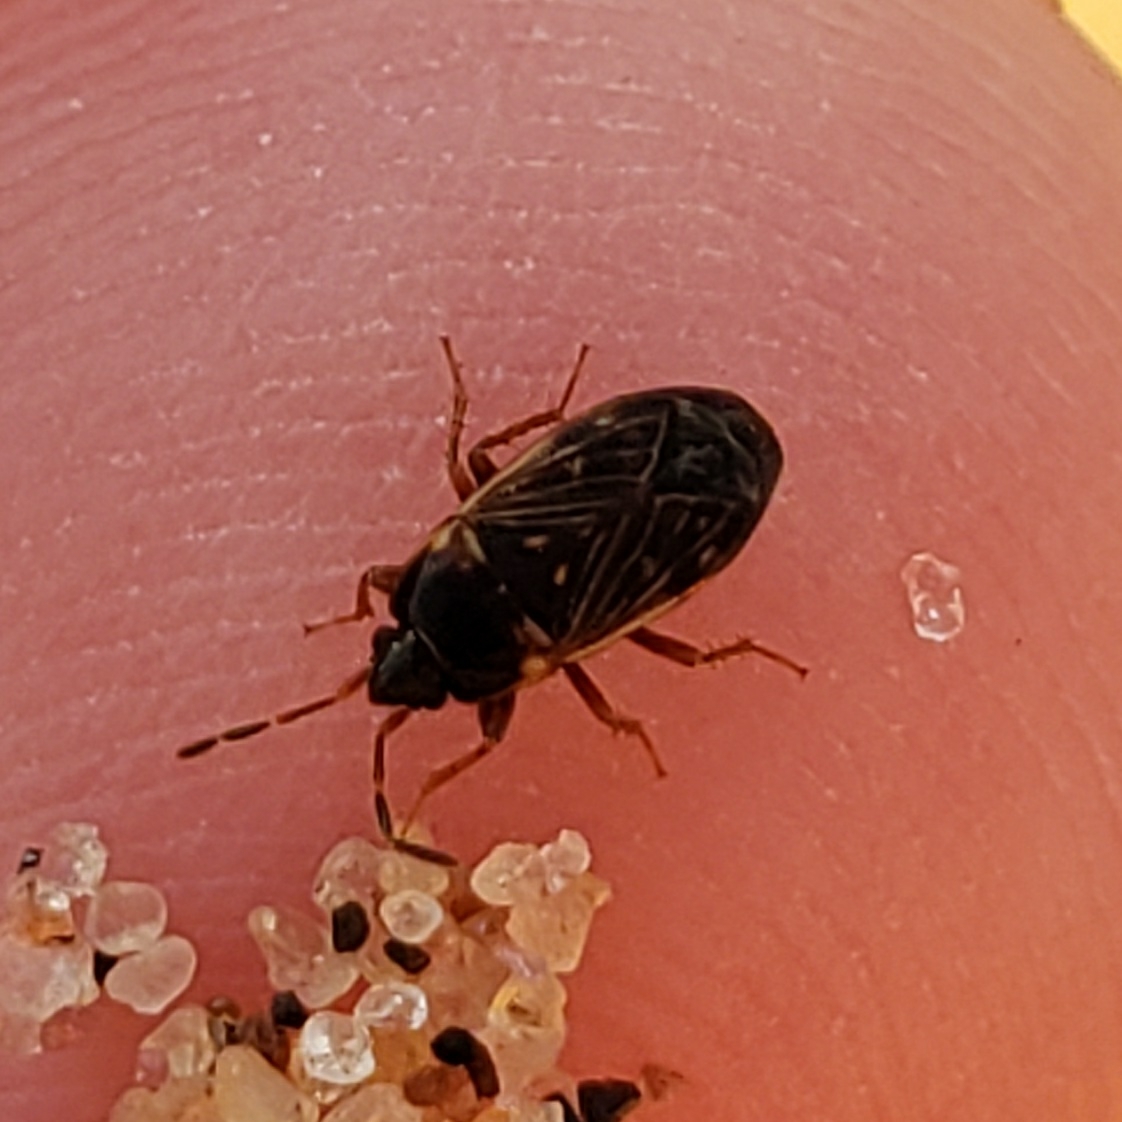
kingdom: Animalia
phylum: Arthropoda
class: Insecta
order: Hemiptera
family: Rhyparochromidae
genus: Cryphula
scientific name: Cryphula trimaculata
